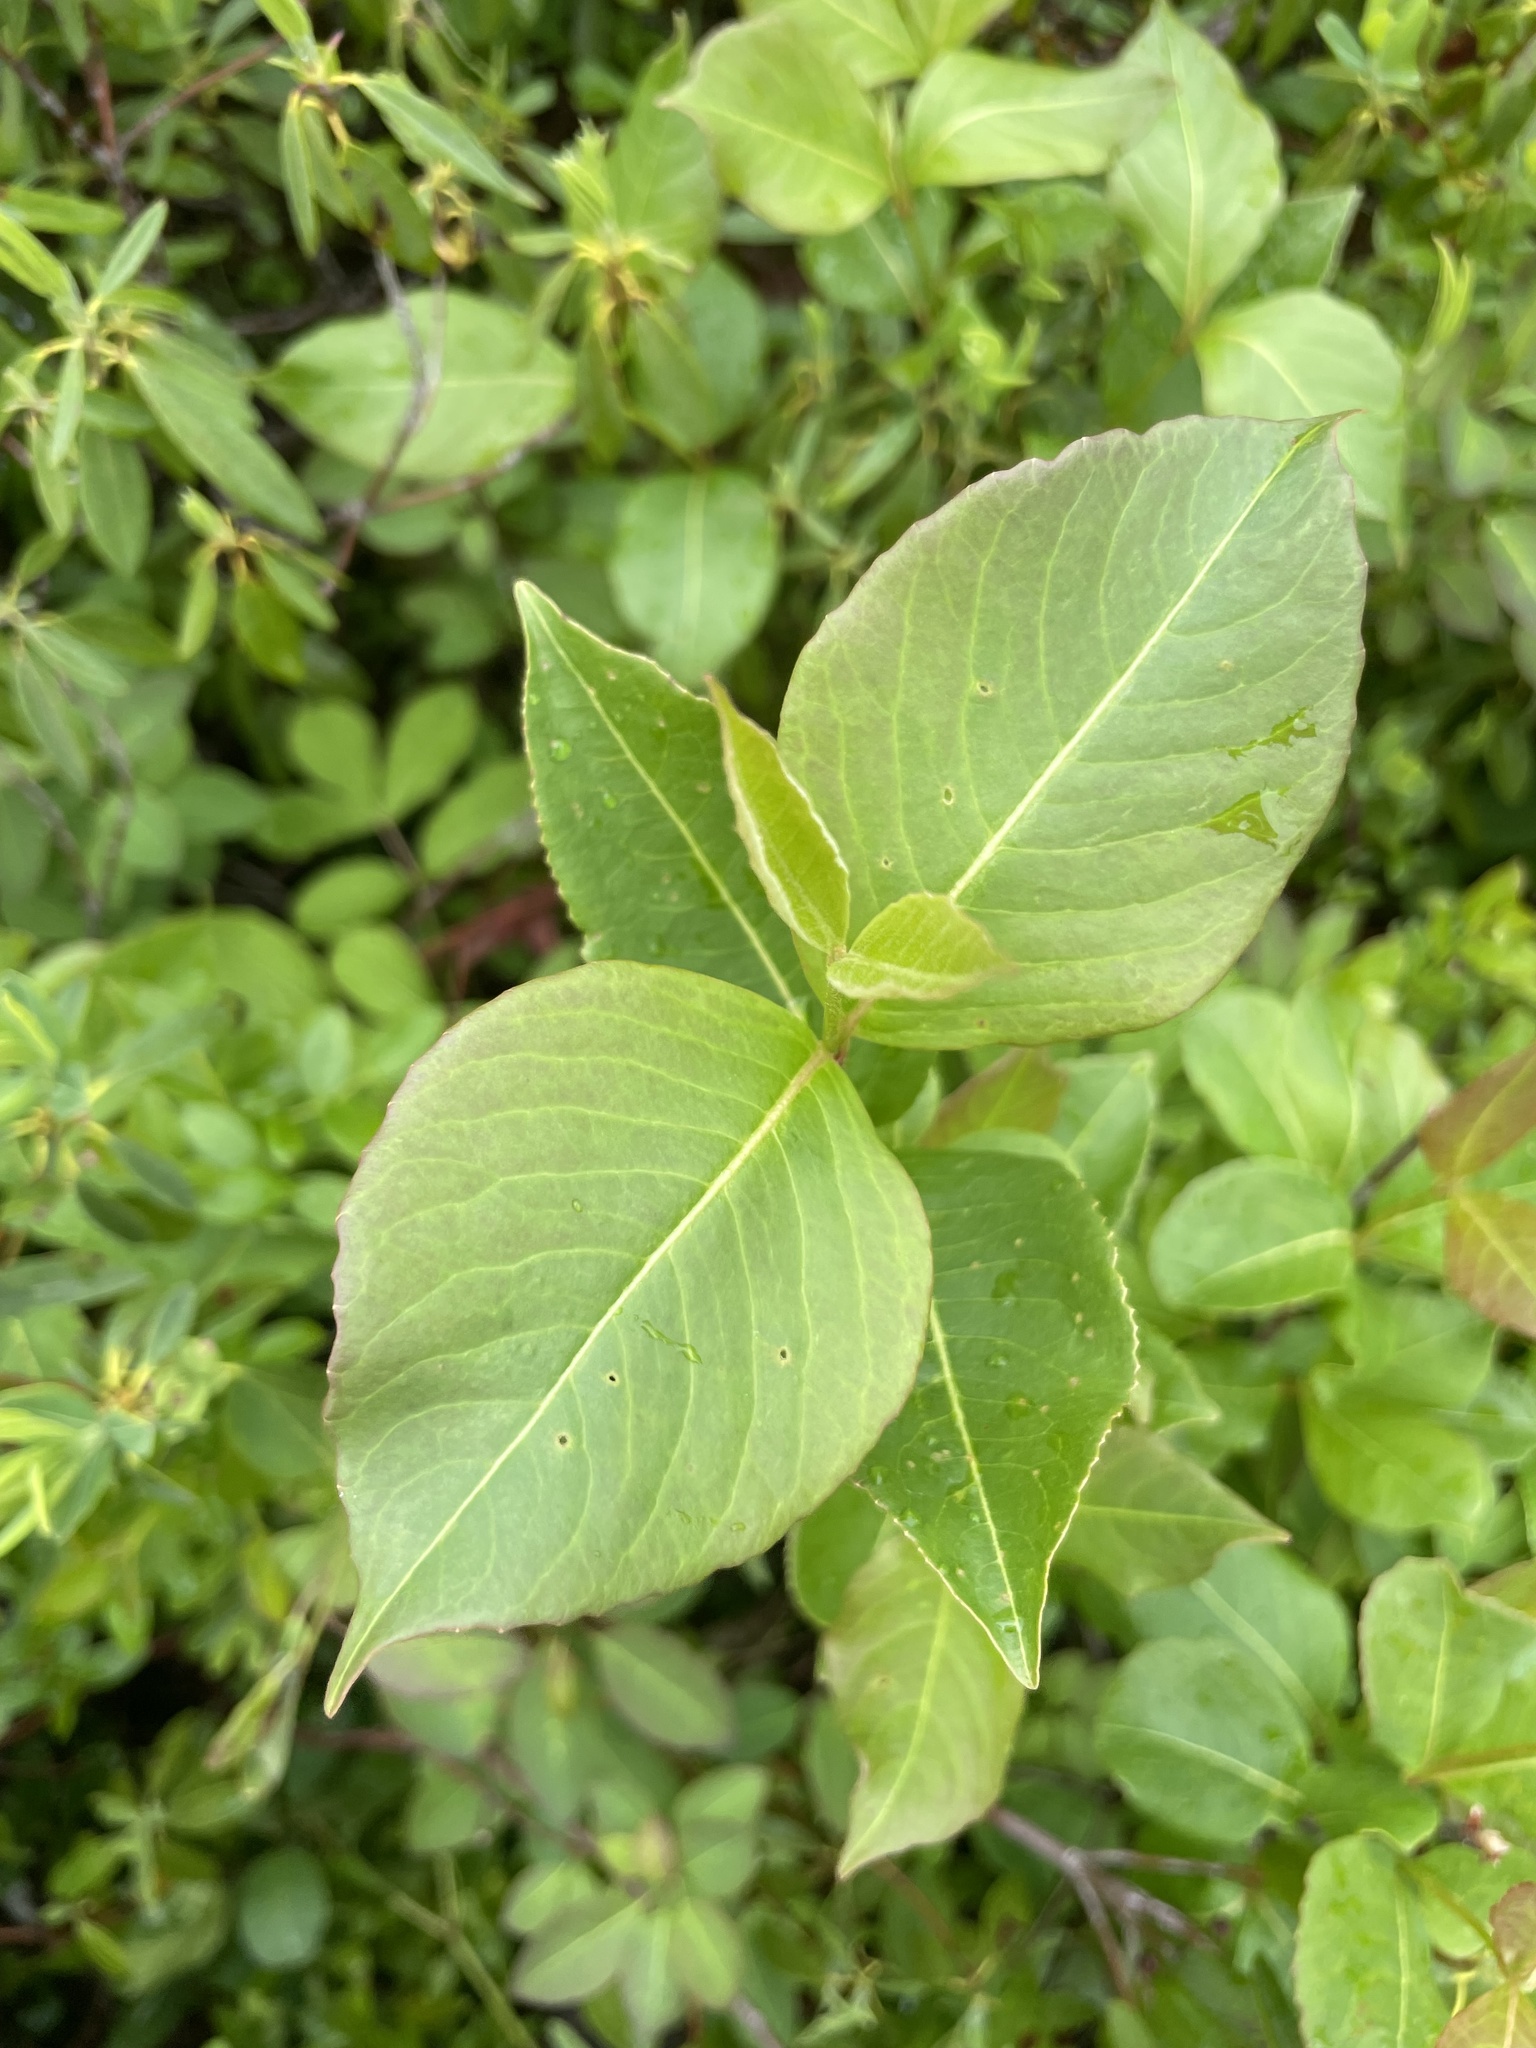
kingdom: Plantae
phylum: Tracheophyta
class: Magnoliopsida
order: Dipsacales
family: Viburnaceae
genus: Viburnum
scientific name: Viburnum cassinoides
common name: Swamp haw
